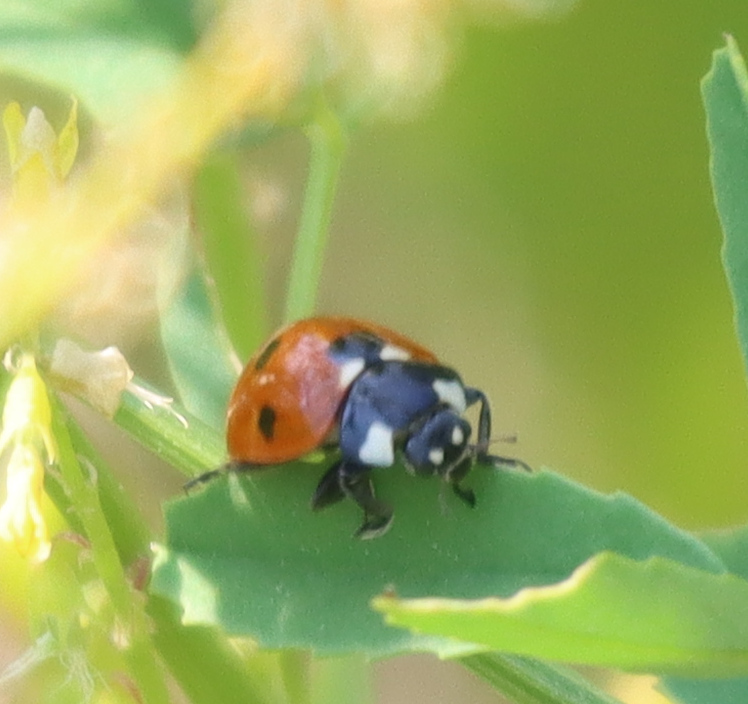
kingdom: Animalia
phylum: Arthropoda
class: Insecta
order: Coleoptera
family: Coccinellidae
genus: Coccinella
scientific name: Coccinella septempunctata
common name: Sevenspotted lady beetle
